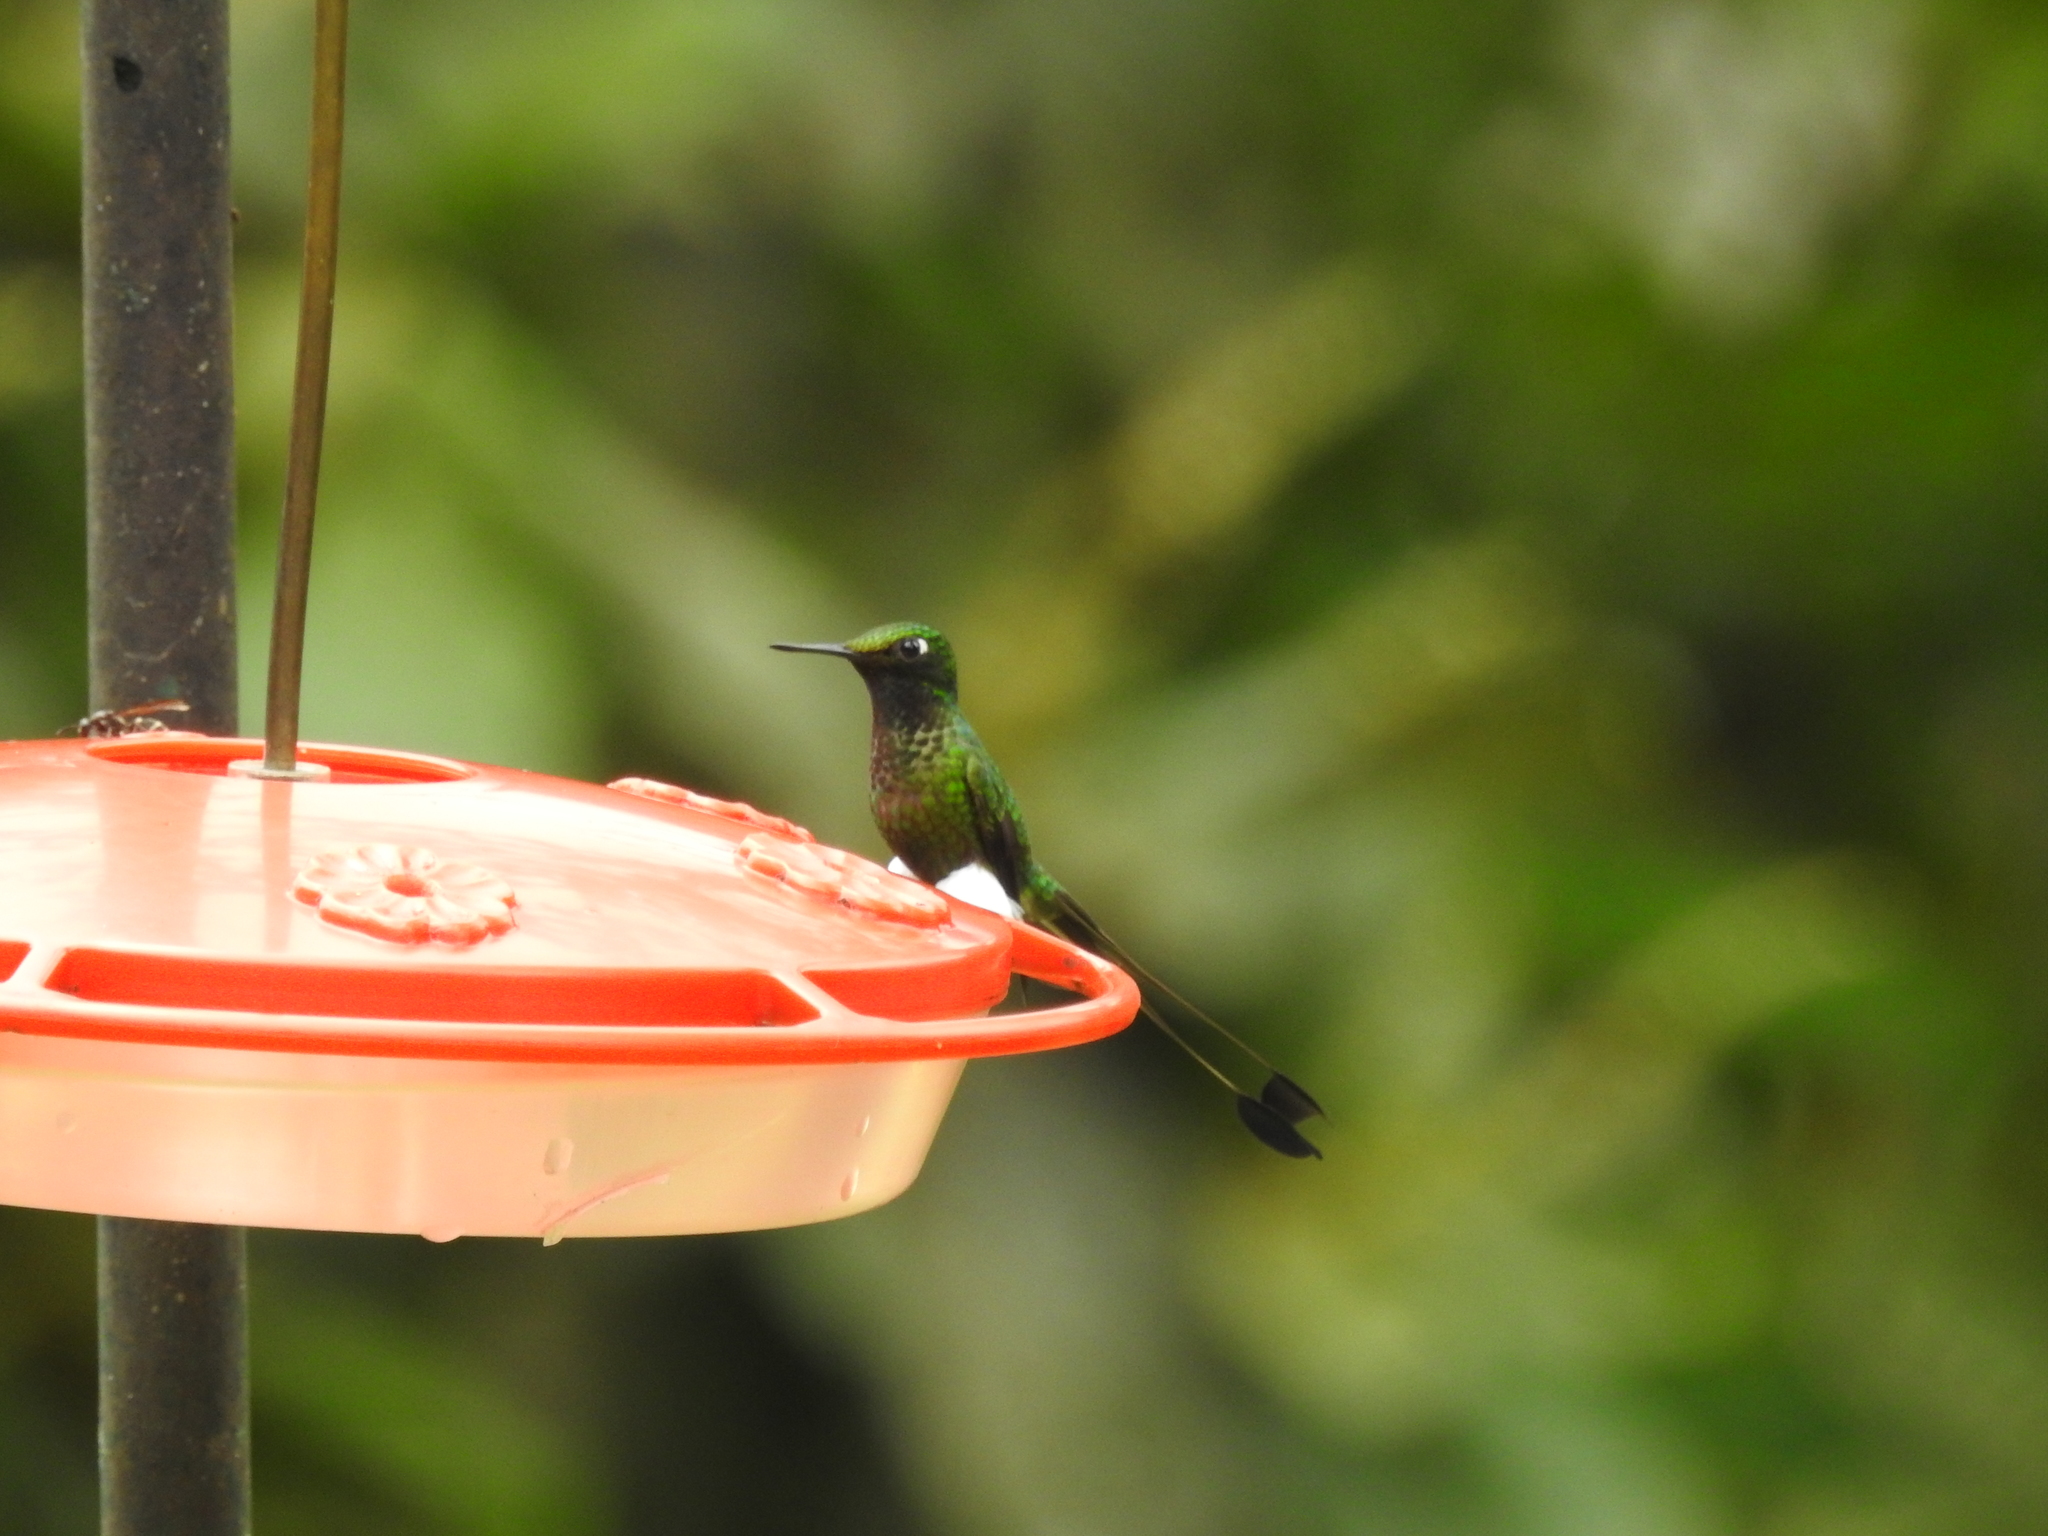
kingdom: Animalia
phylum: Chordata
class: Aves
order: Apodiformes
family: Trochilidae
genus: Ocreatus
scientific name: Ocreatus underwoodii
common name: Booted racket-tail
